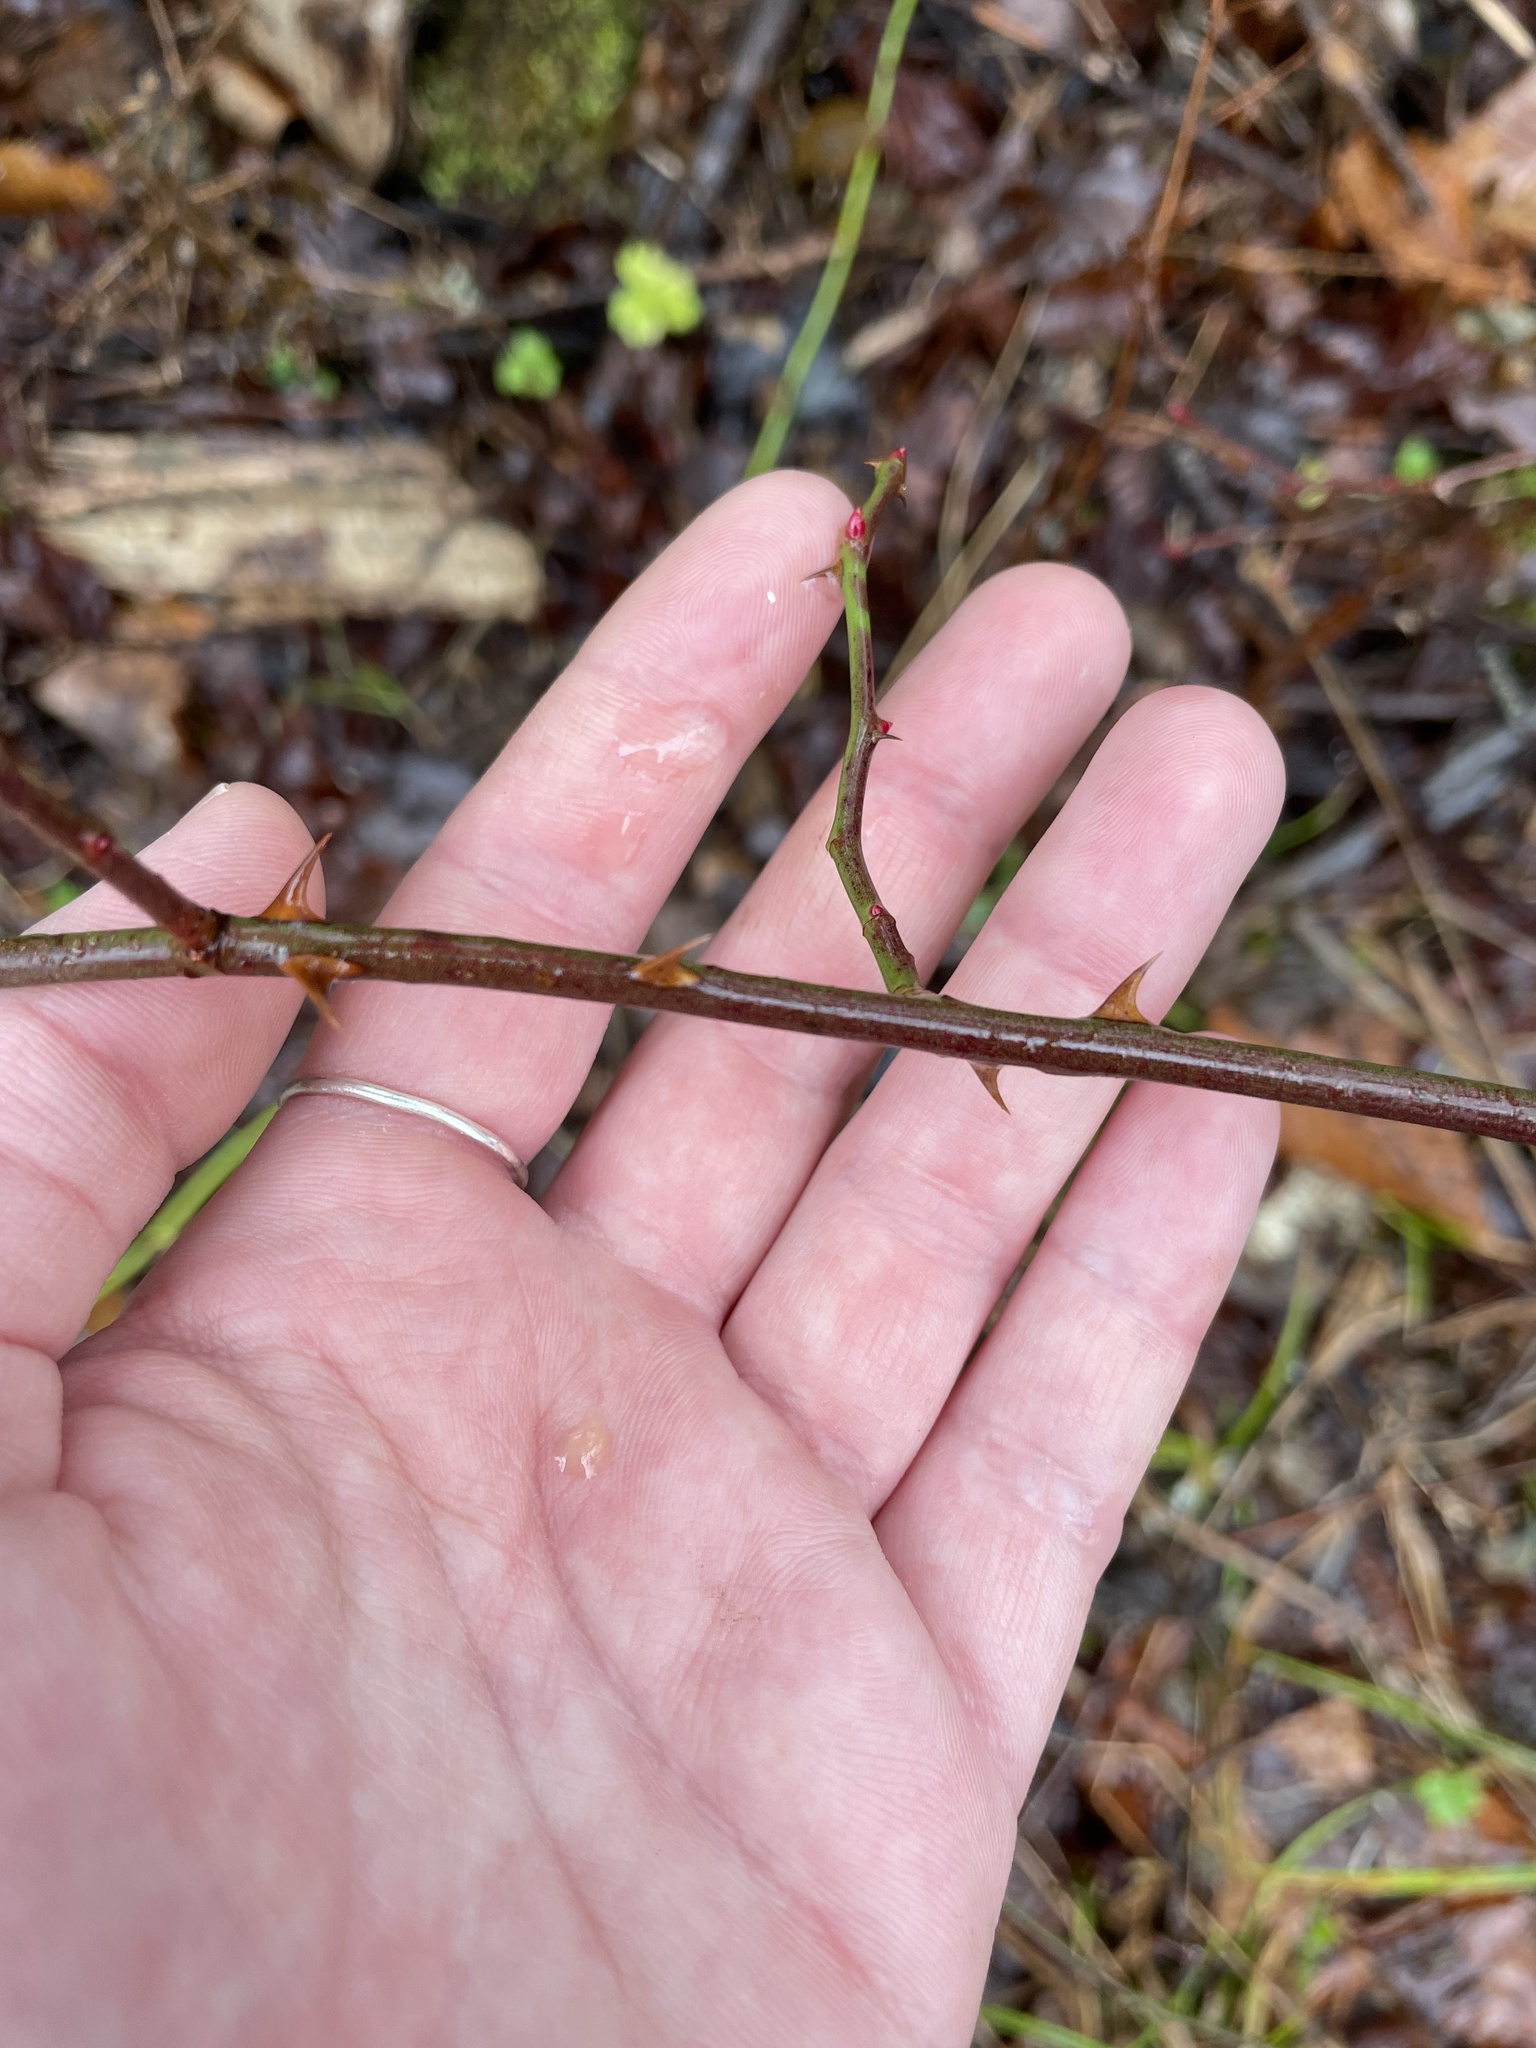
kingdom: Plantae
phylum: Tracheophyta
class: Magnoliopsida
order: Rosales
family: Rosaceae
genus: Rosa
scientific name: Rosa multiflora
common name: Multiflora rose
